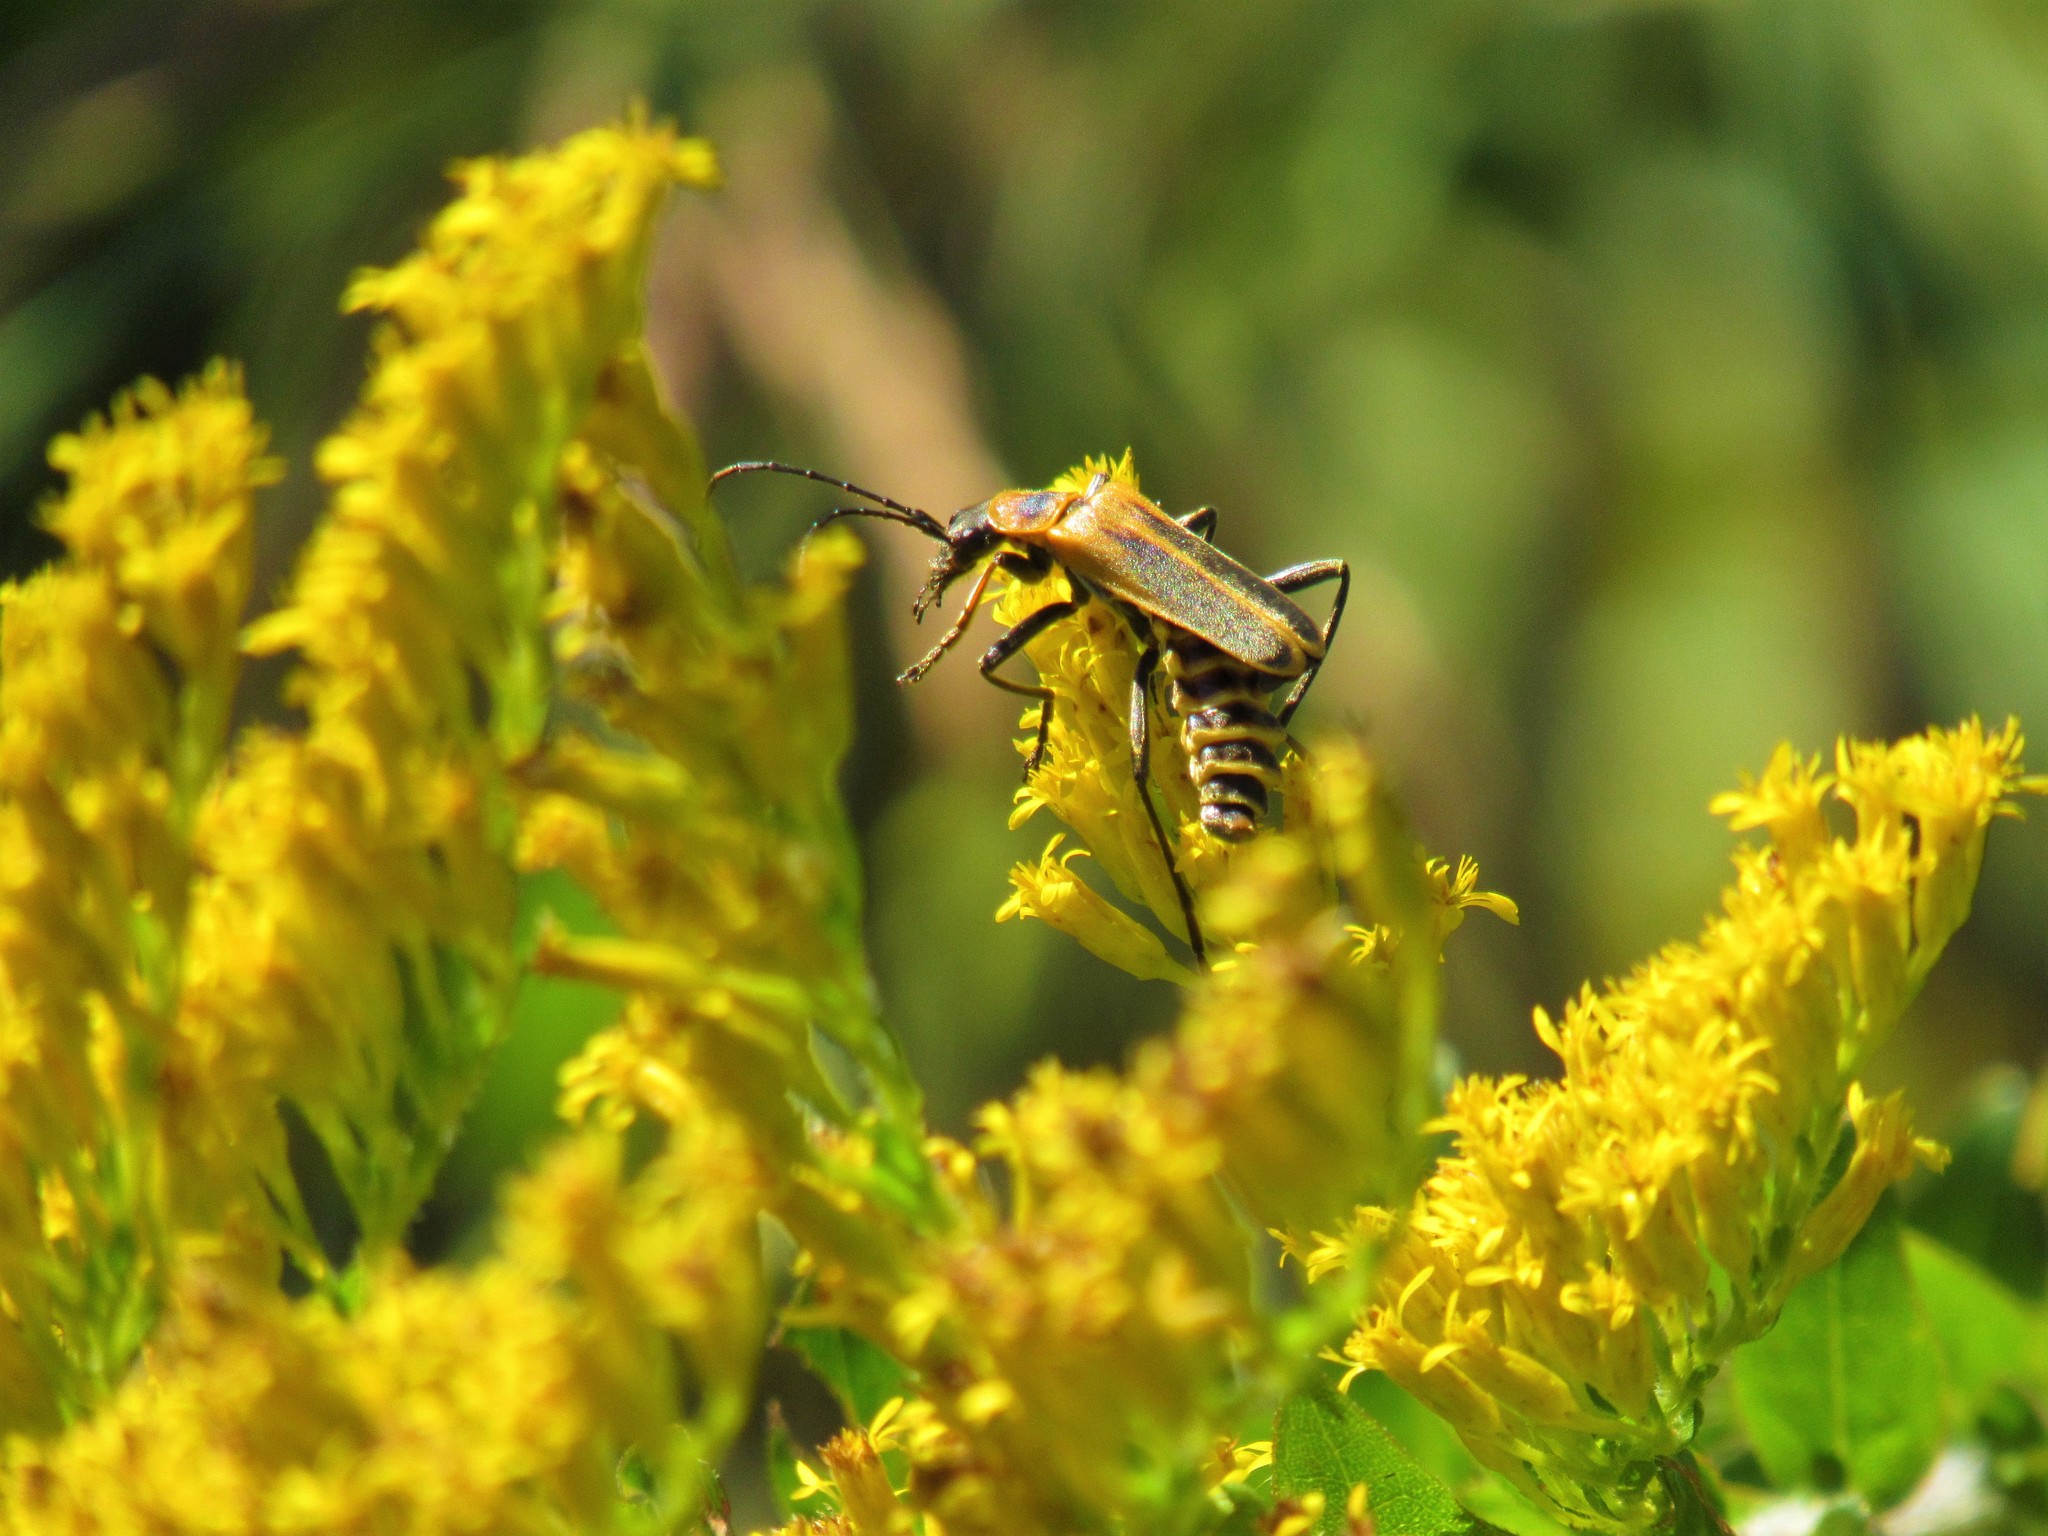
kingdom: Animalia
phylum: Arthropoda
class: Insecta
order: Coleoptera
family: Cantharidae
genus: Chauliognathus
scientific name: Chauliognathus pensylvanicus
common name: Goldenrod soldier beetle
